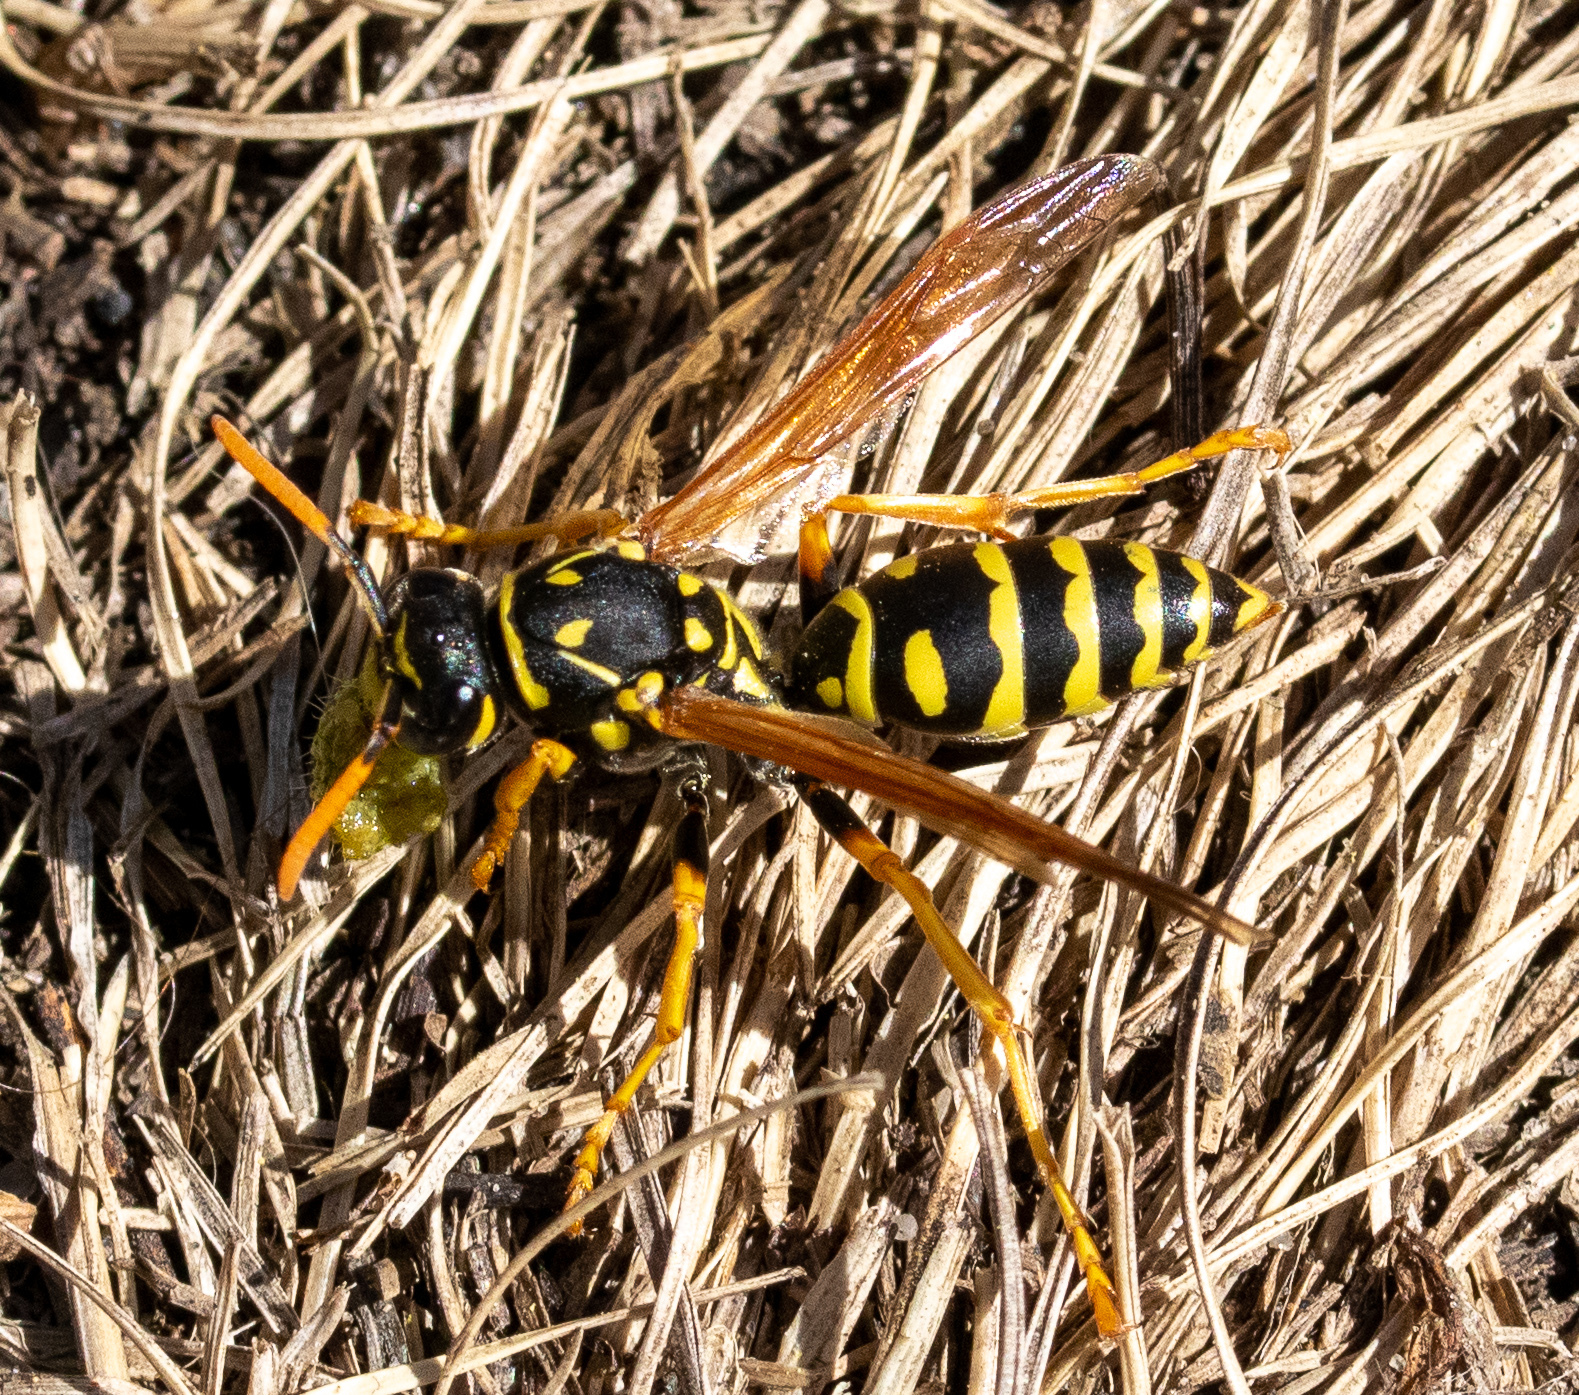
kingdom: Animalia
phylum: Arthropoda
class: Insecta
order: Hymenoptera
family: Eumenidae
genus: Polistes
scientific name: Polistes dominula
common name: Paper wasp
